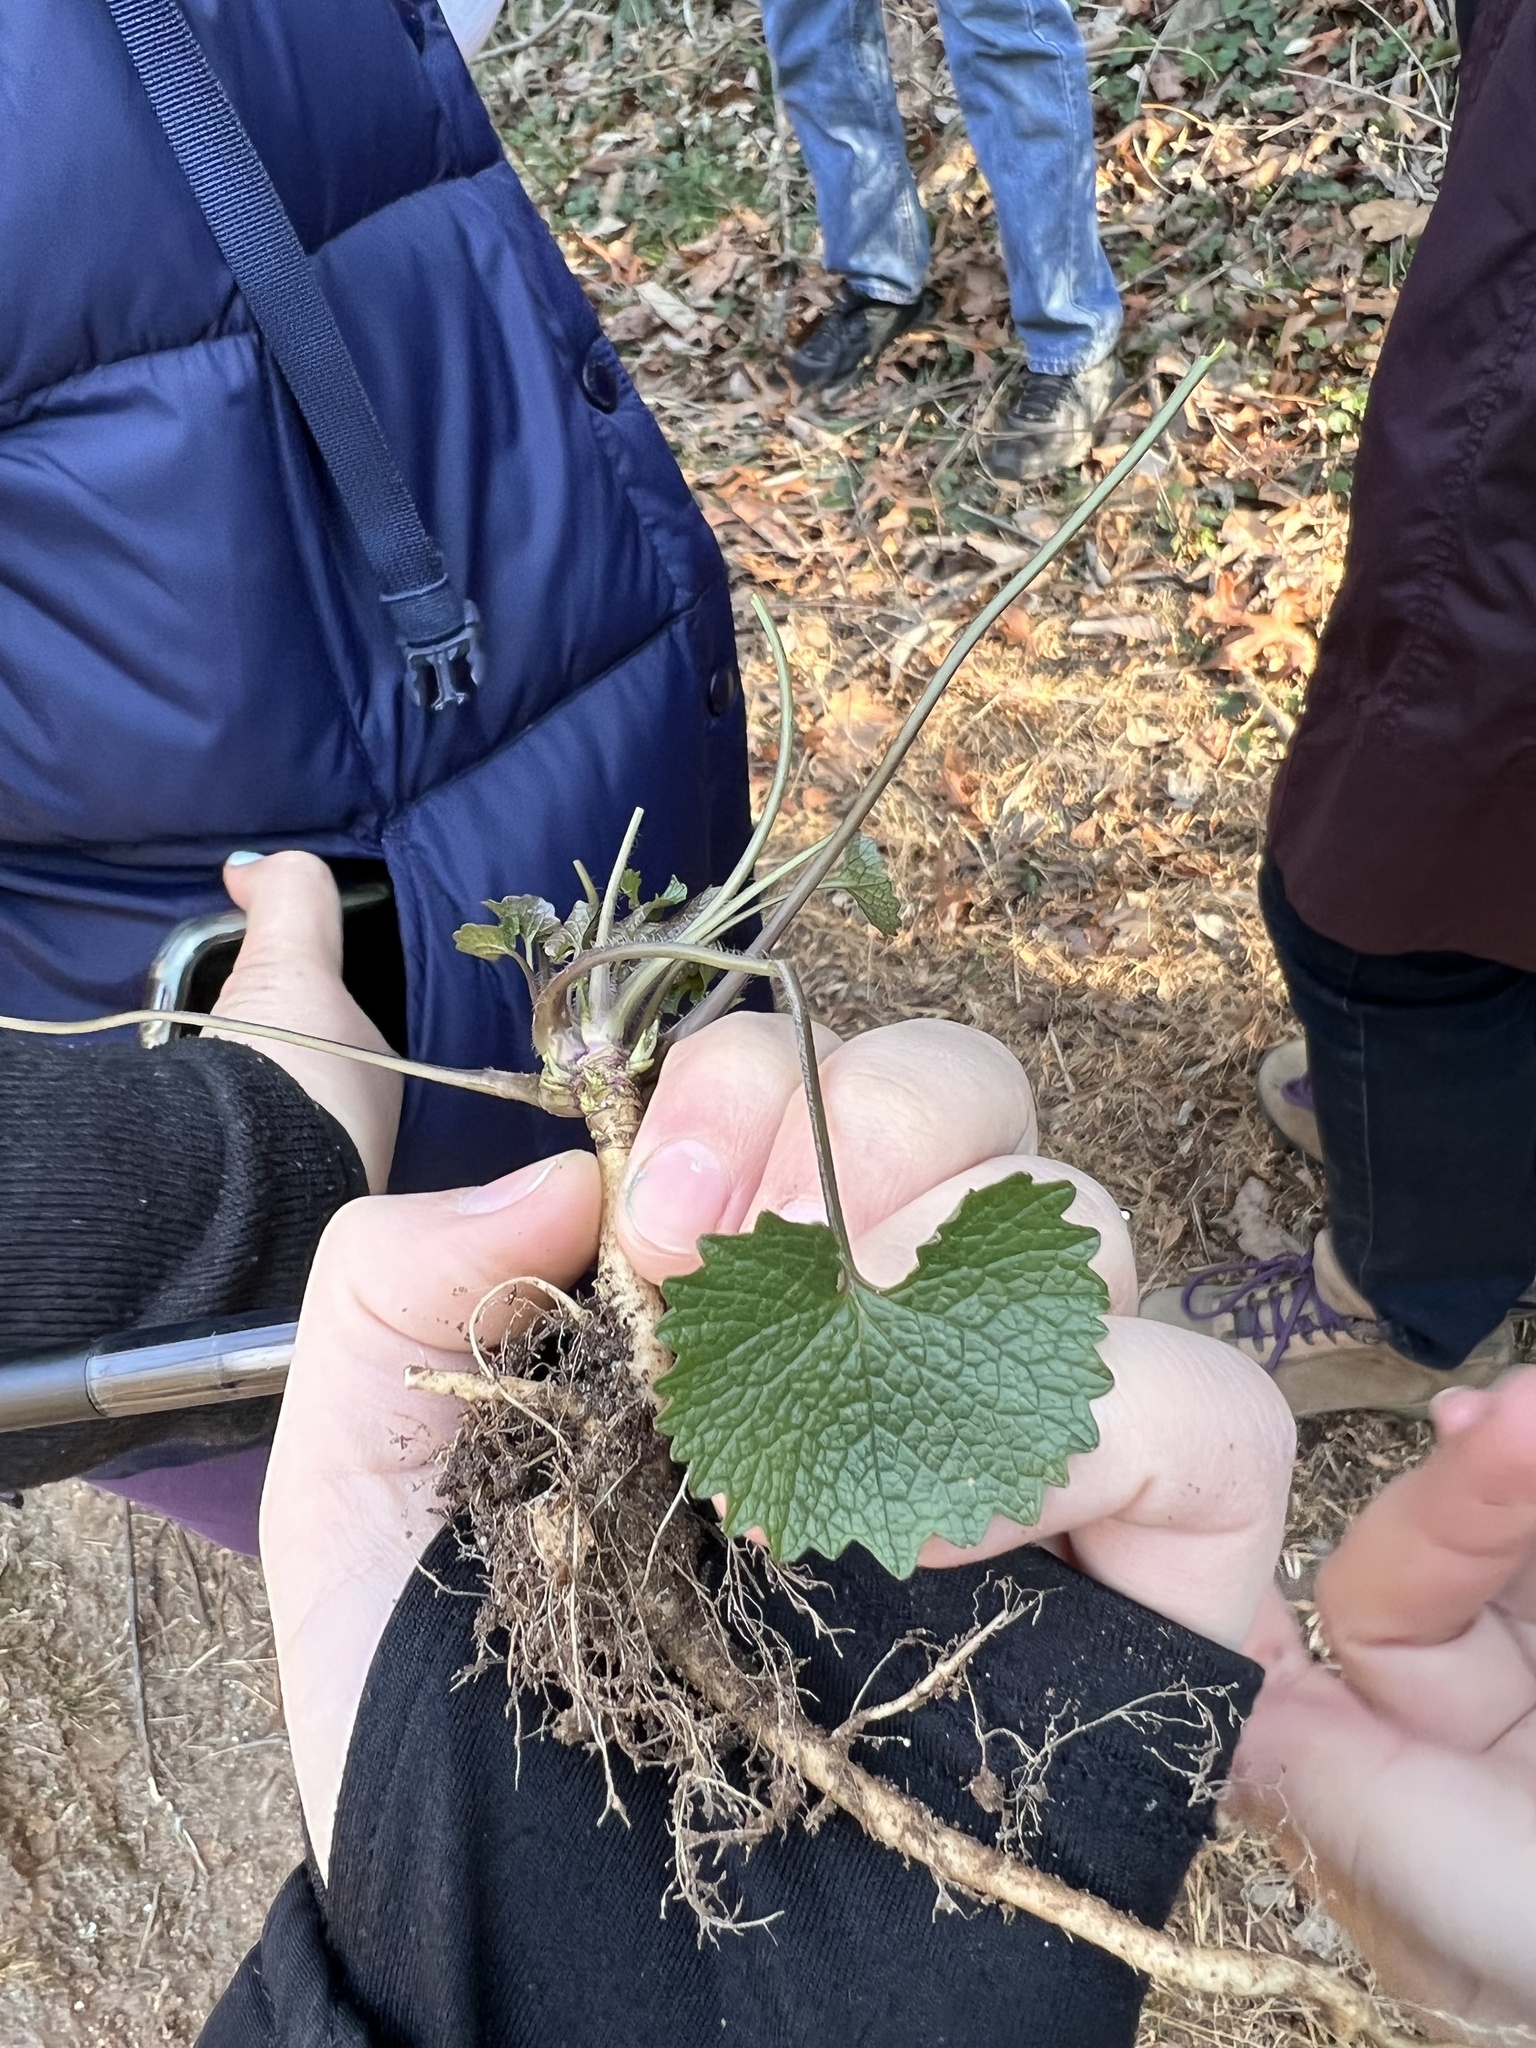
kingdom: Plantae
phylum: Tracheophyta
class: Magnoliopsida
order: Brassicales
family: Brassicaceae
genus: Alliaria
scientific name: Alliaria petiolata
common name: Garlic mustard
